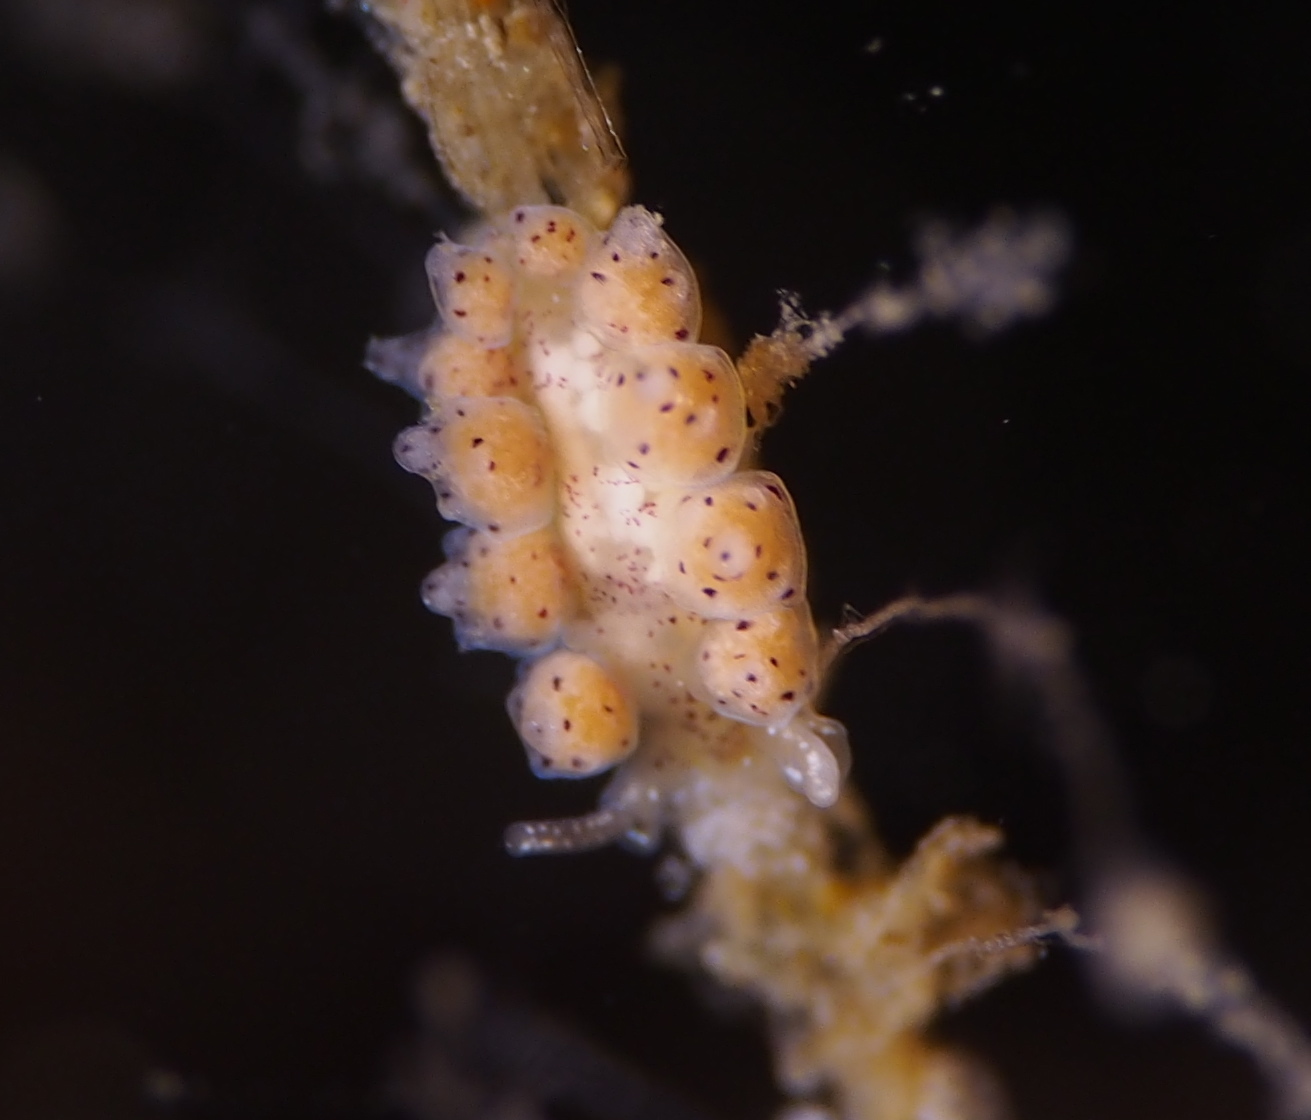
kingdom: Animalia
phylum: Mollusca
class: Gastropoda
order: Nudibranchia
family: Dotidae
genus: Doto
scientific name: Doto dunnei
